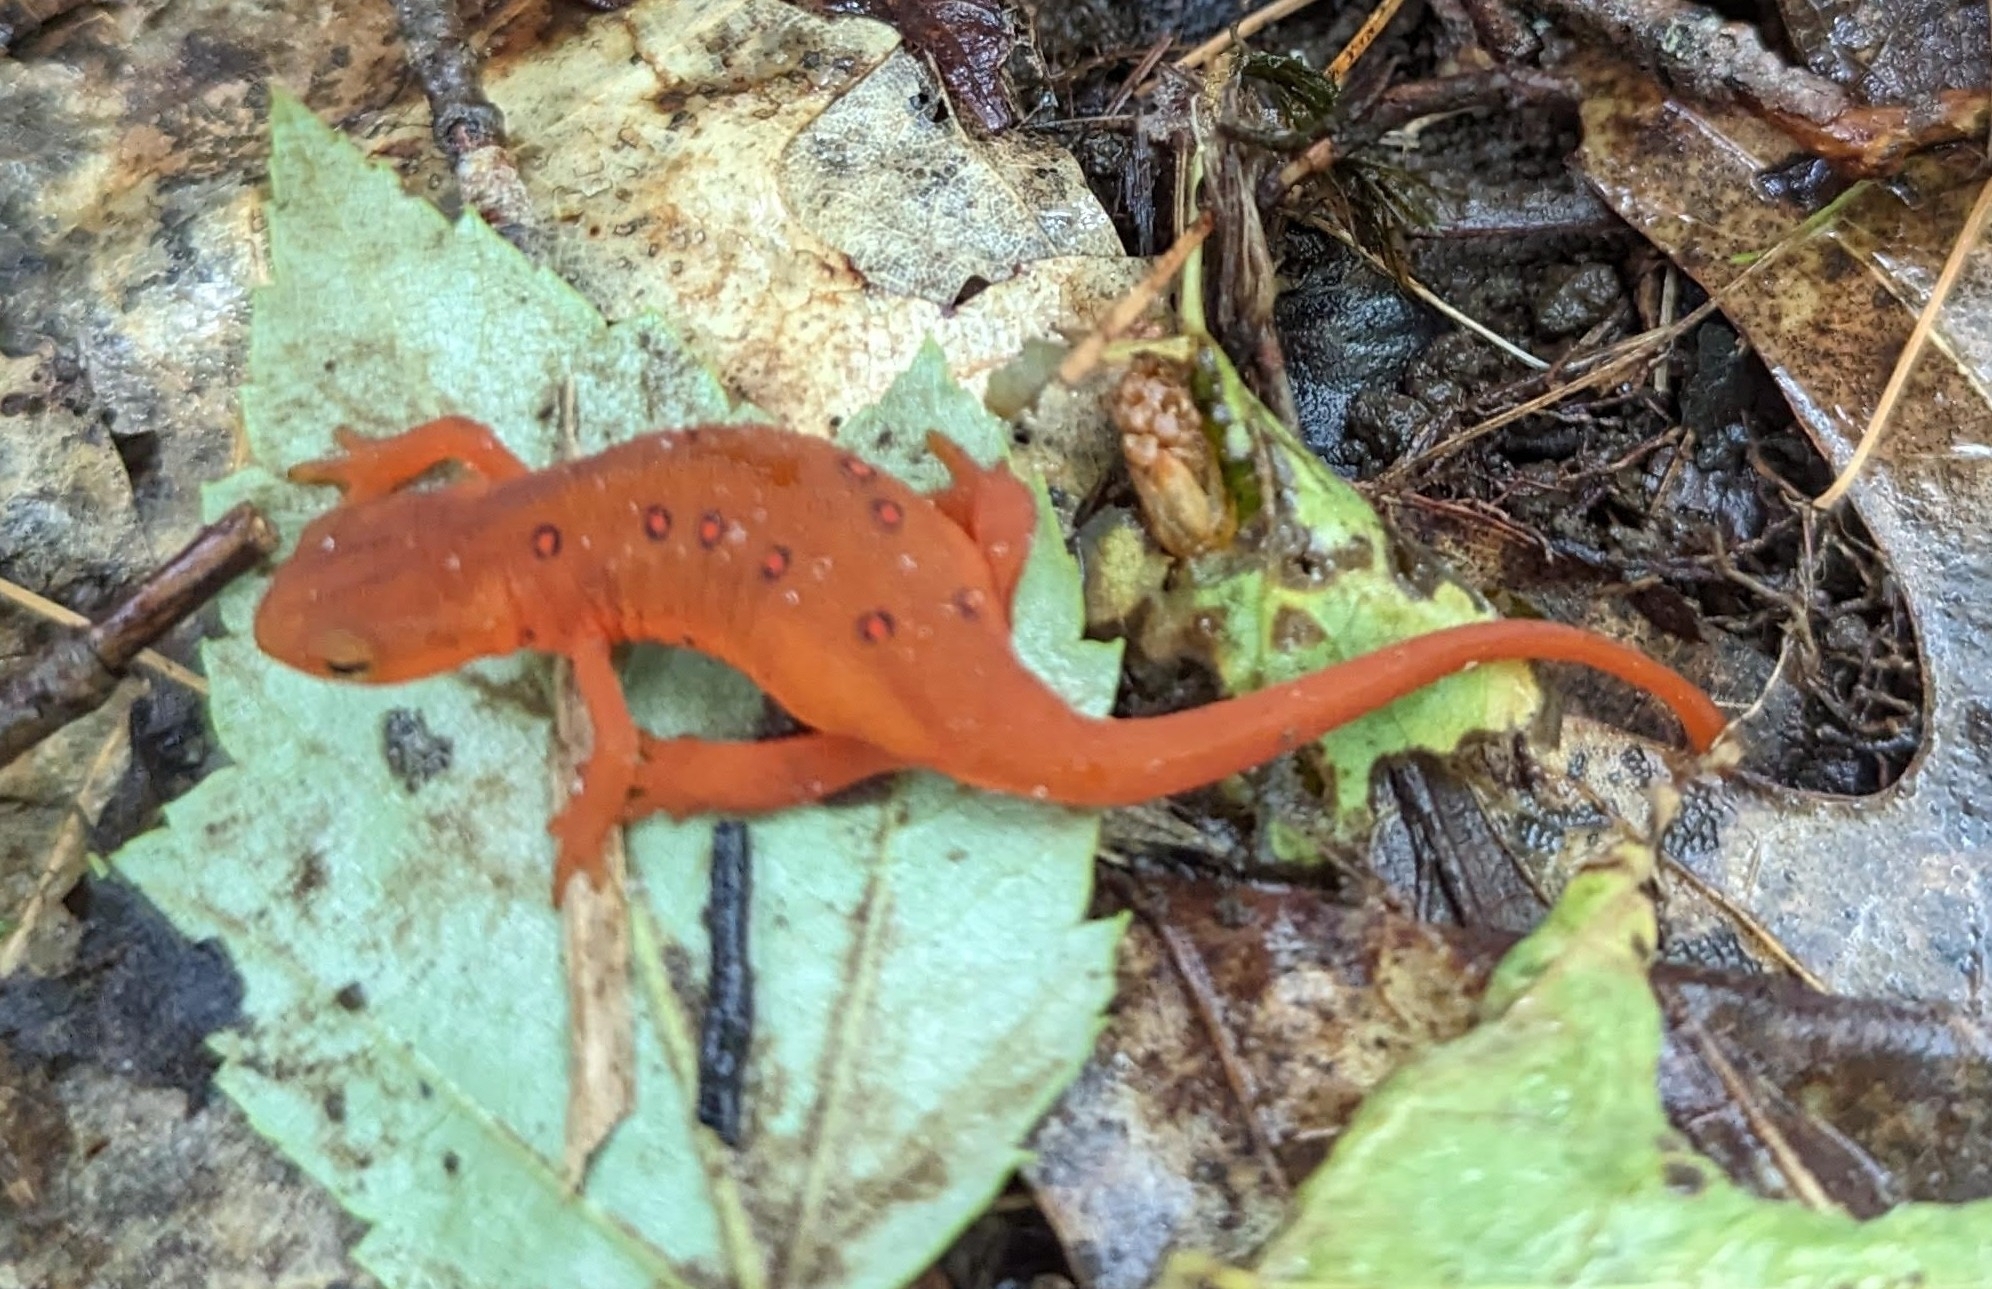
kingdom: Animalia
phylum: Chordata
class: Amphibia
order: Caudata
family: Salamandridae
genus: Notophthalmus
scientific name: Notophthalmus viridescens
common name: Eastern newt
